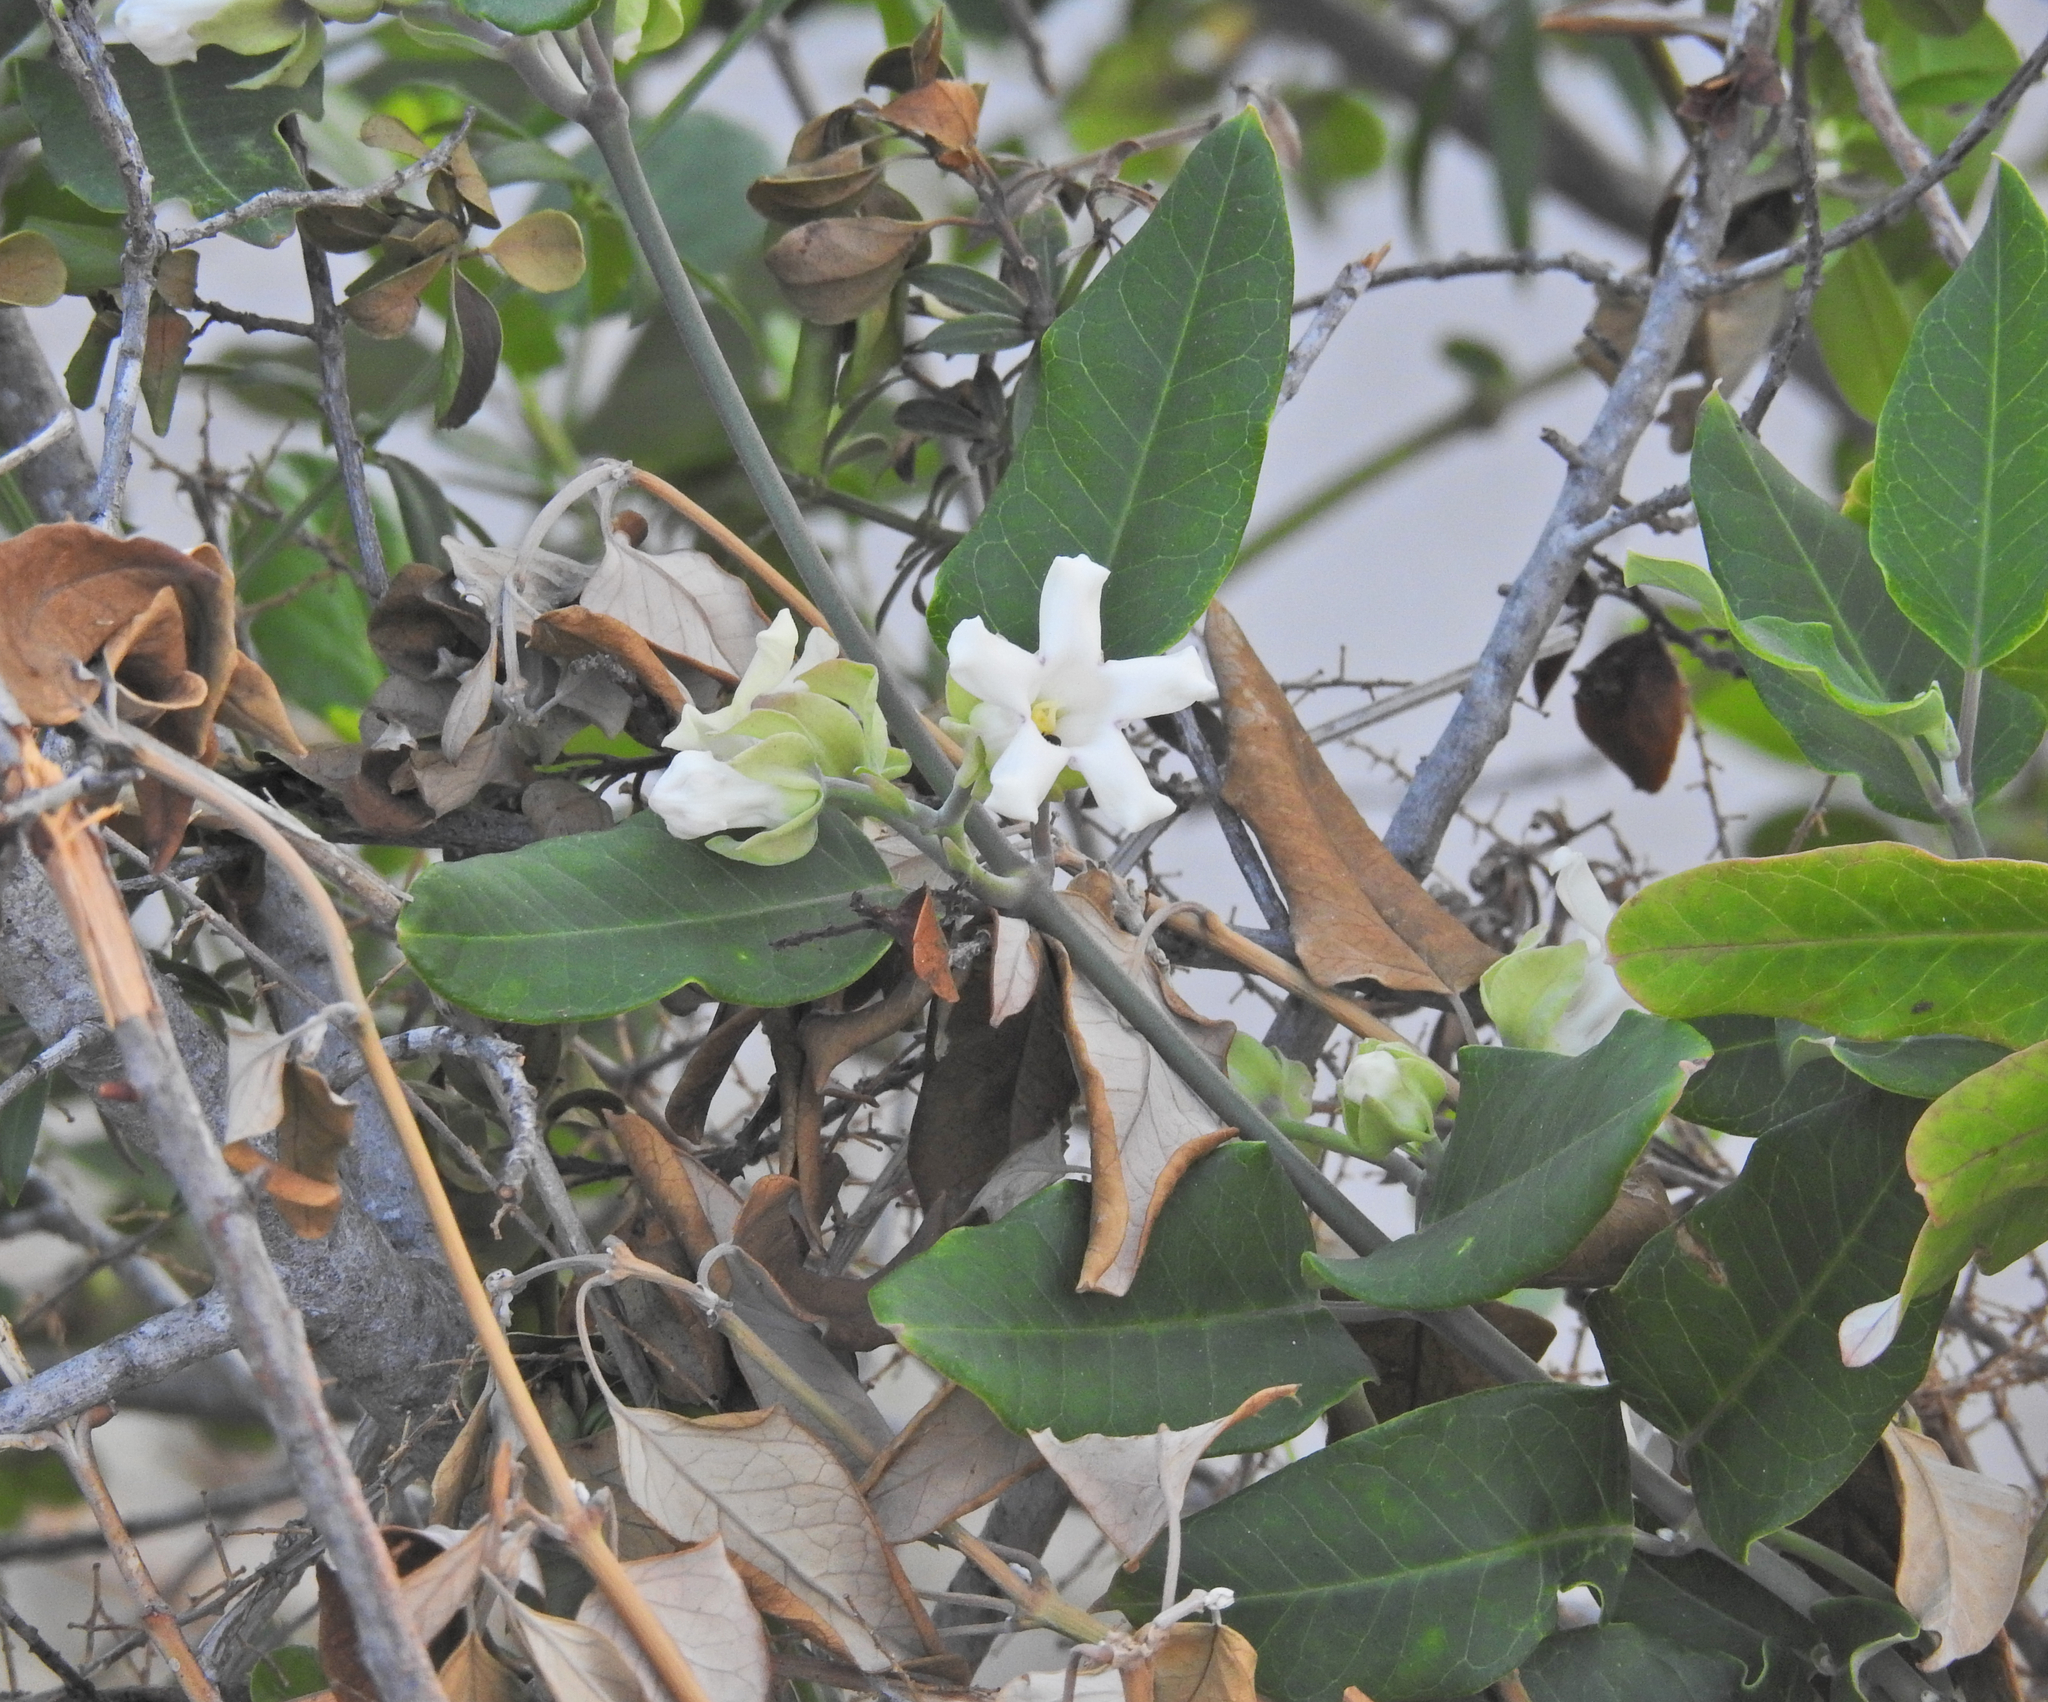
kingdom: Plantae
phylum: Tracheophyta
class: Magnoliopsida
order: Gentianales
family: Apocynaceae
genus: Araujia
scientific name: Araujia sericifera
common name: White bladderflower
